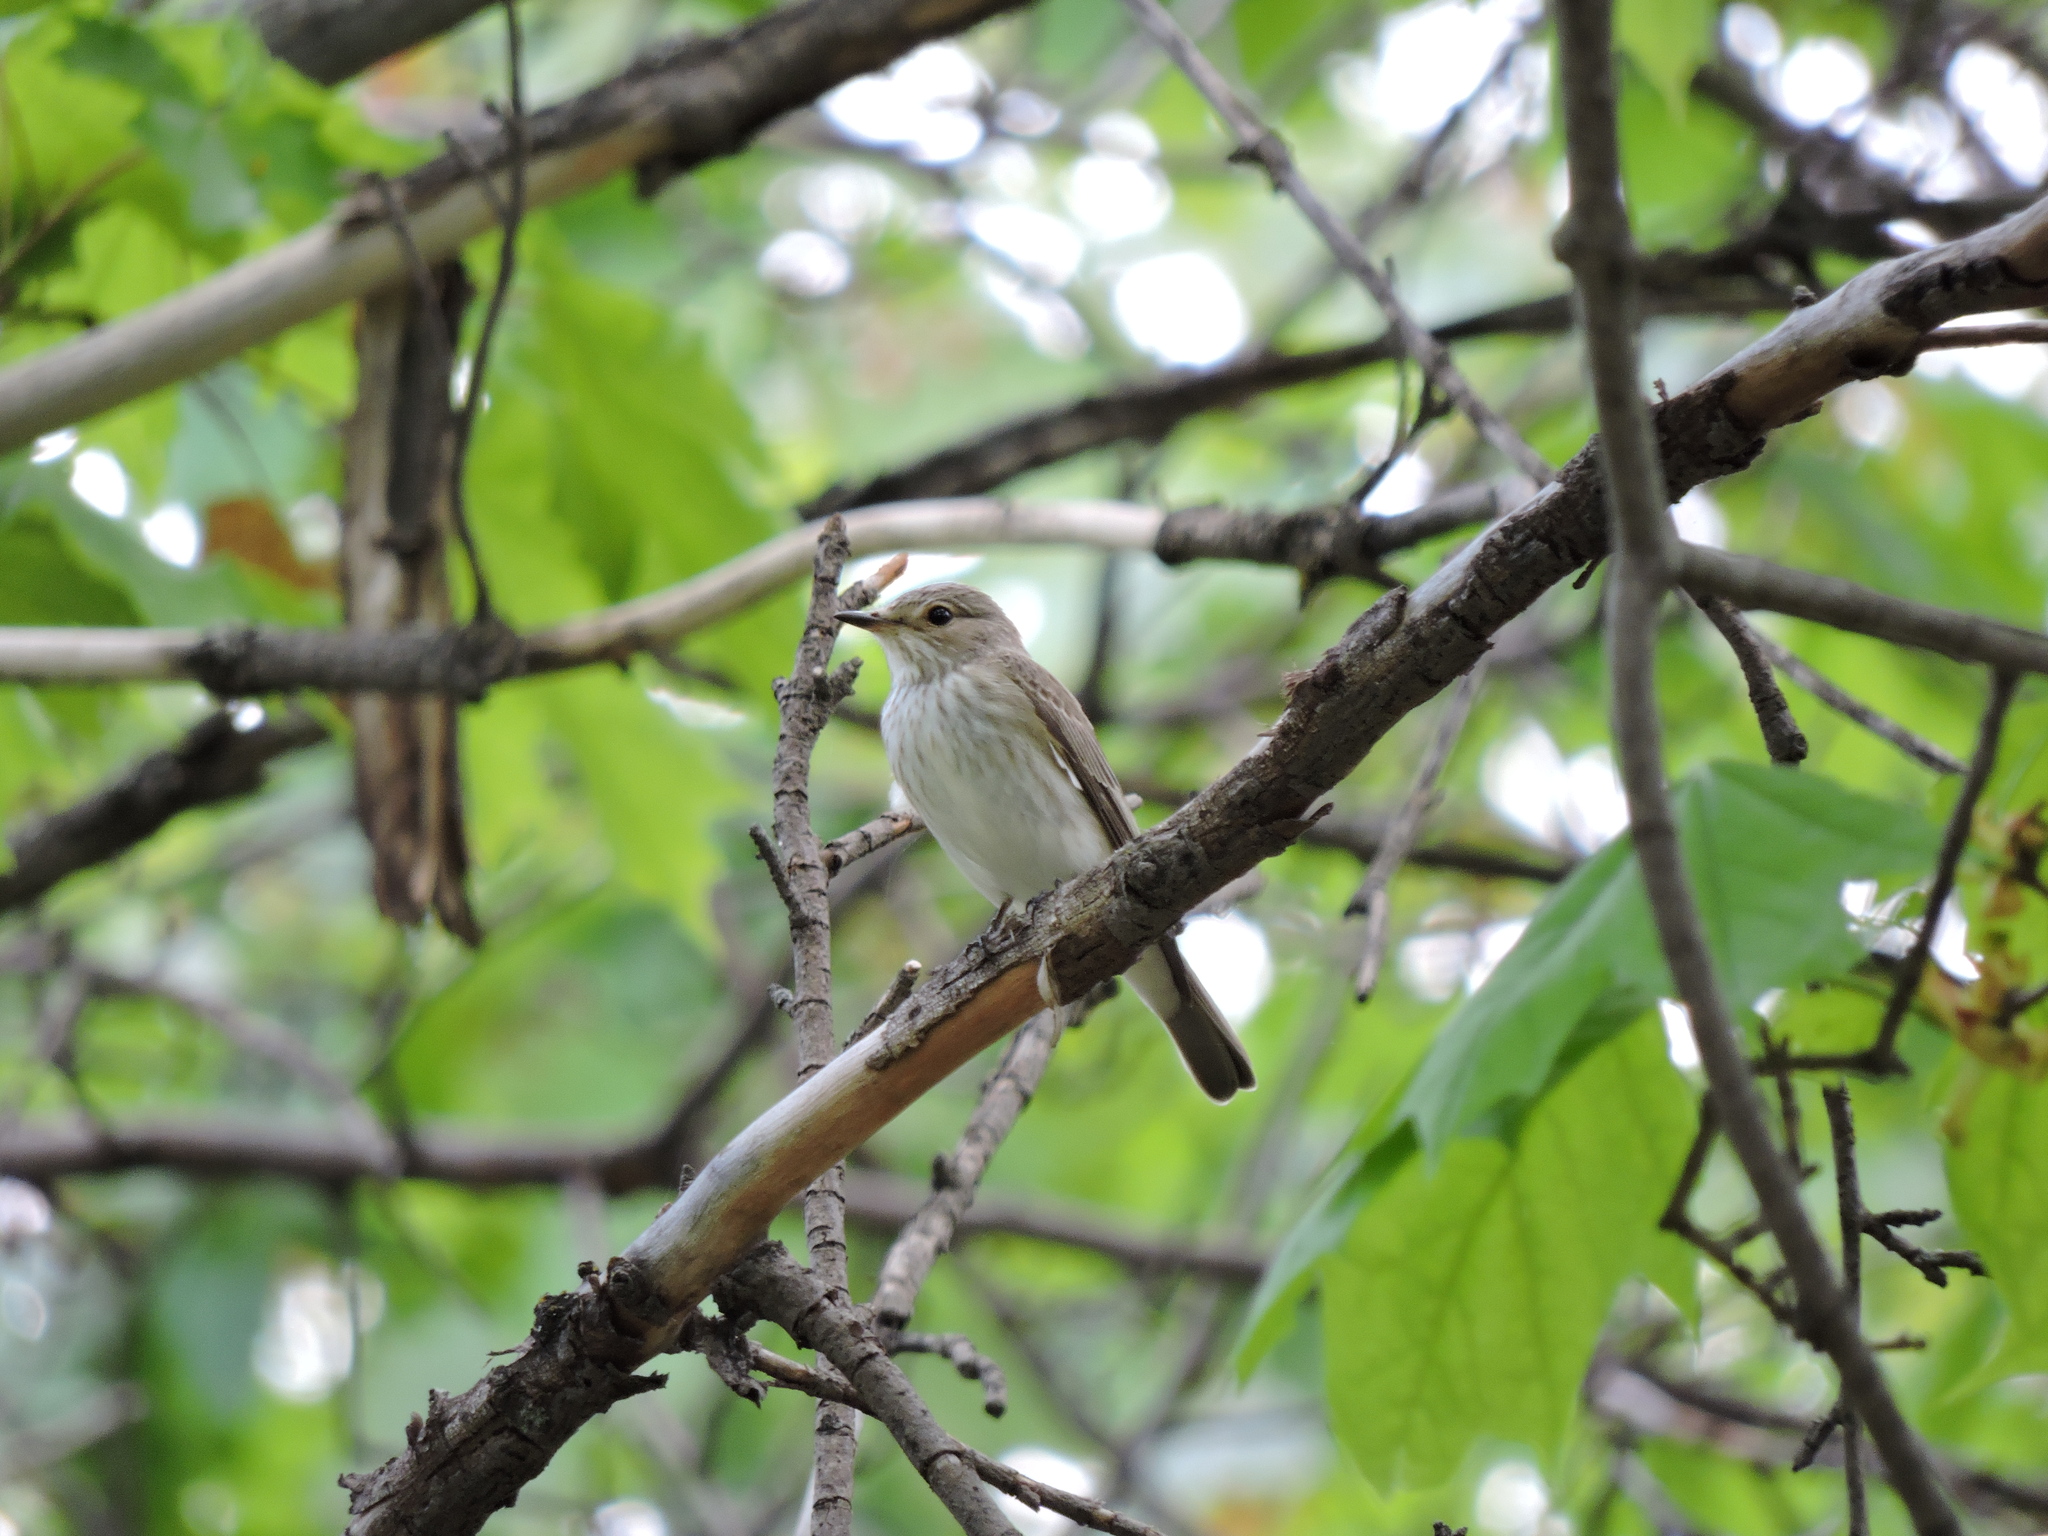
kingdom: Animalia
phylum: Chordata
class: Aves
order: Passeriformes
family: Muscicapidae
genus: Muscicapa
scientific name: Muscicapa striata
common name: Spotted flycatcher
